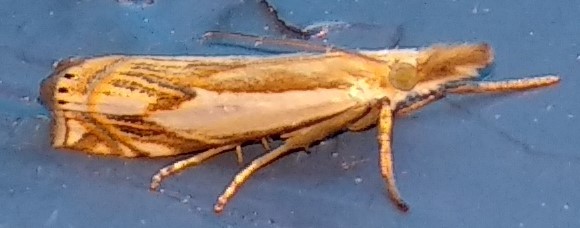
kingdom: Animalia
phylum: Arthropoda
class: Insecta
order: Lepidoptera
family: Crambidae
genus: Crambus
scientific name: Crambus agitatellus
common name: Double-banded grass-veneer
